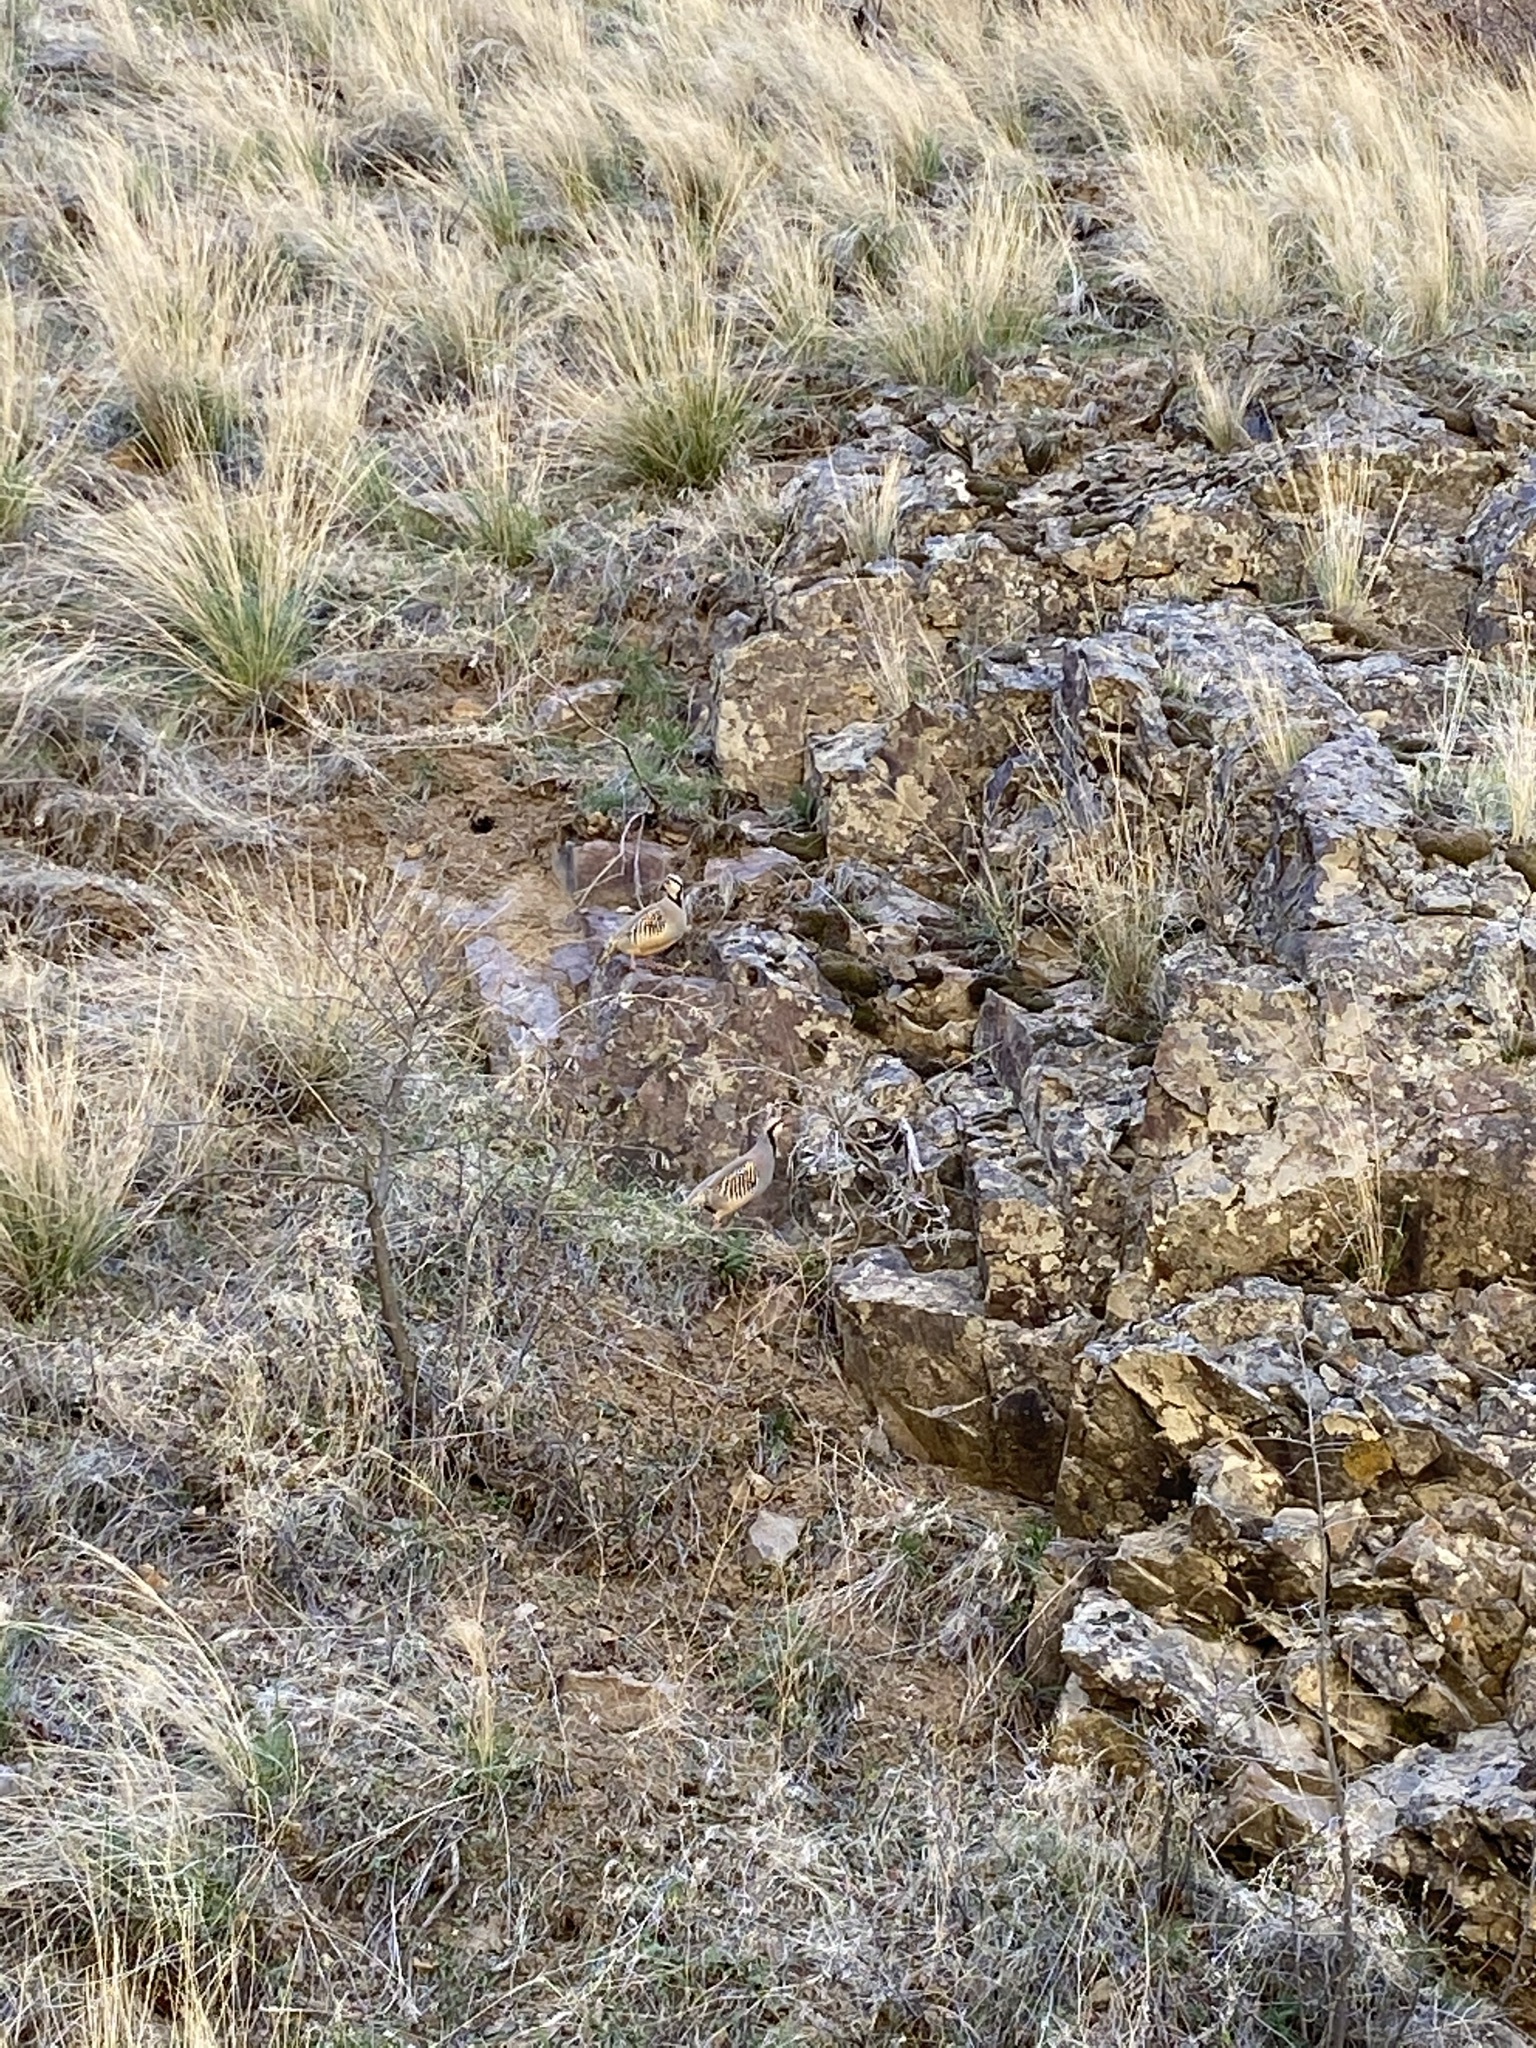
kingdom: Animalia
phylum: Chordata
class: Aves
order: Galliformes
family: Phasianidae
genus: Alectoris
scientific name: Alectoris chukar
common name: Chukar
